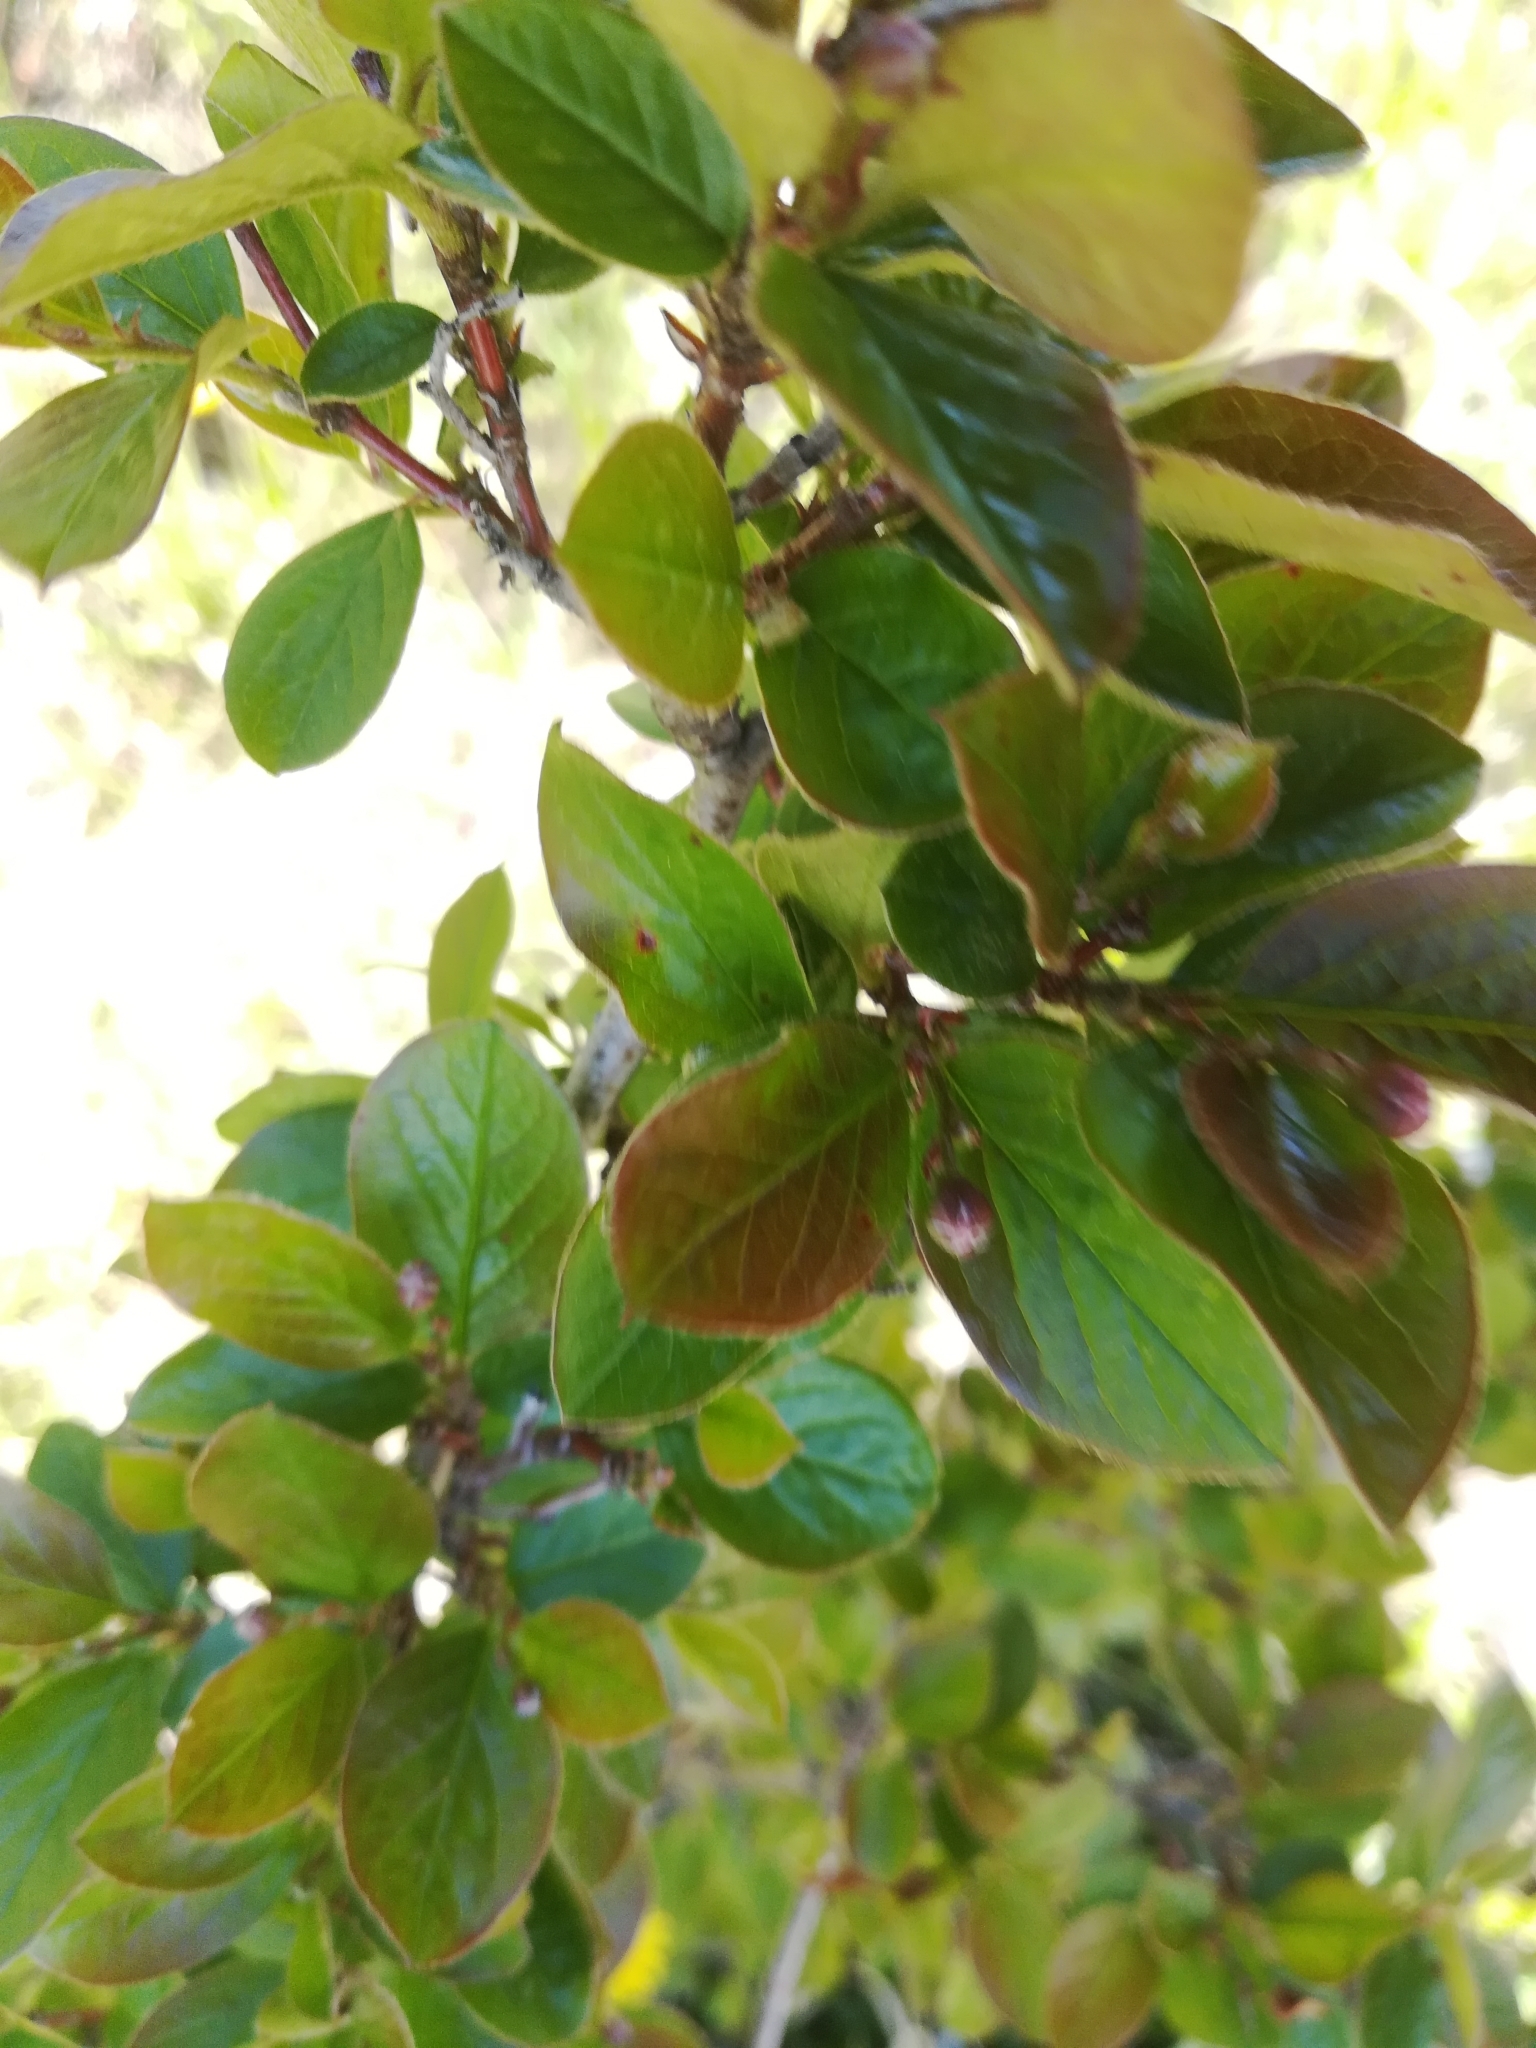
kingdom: Plantae
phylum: Tracheophyta
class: Magnoliopsida
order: Rosales
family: Rosaceae
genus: Cotoneaster
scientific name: Cotoneaster acutifolius
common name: Peking cotoneaster
